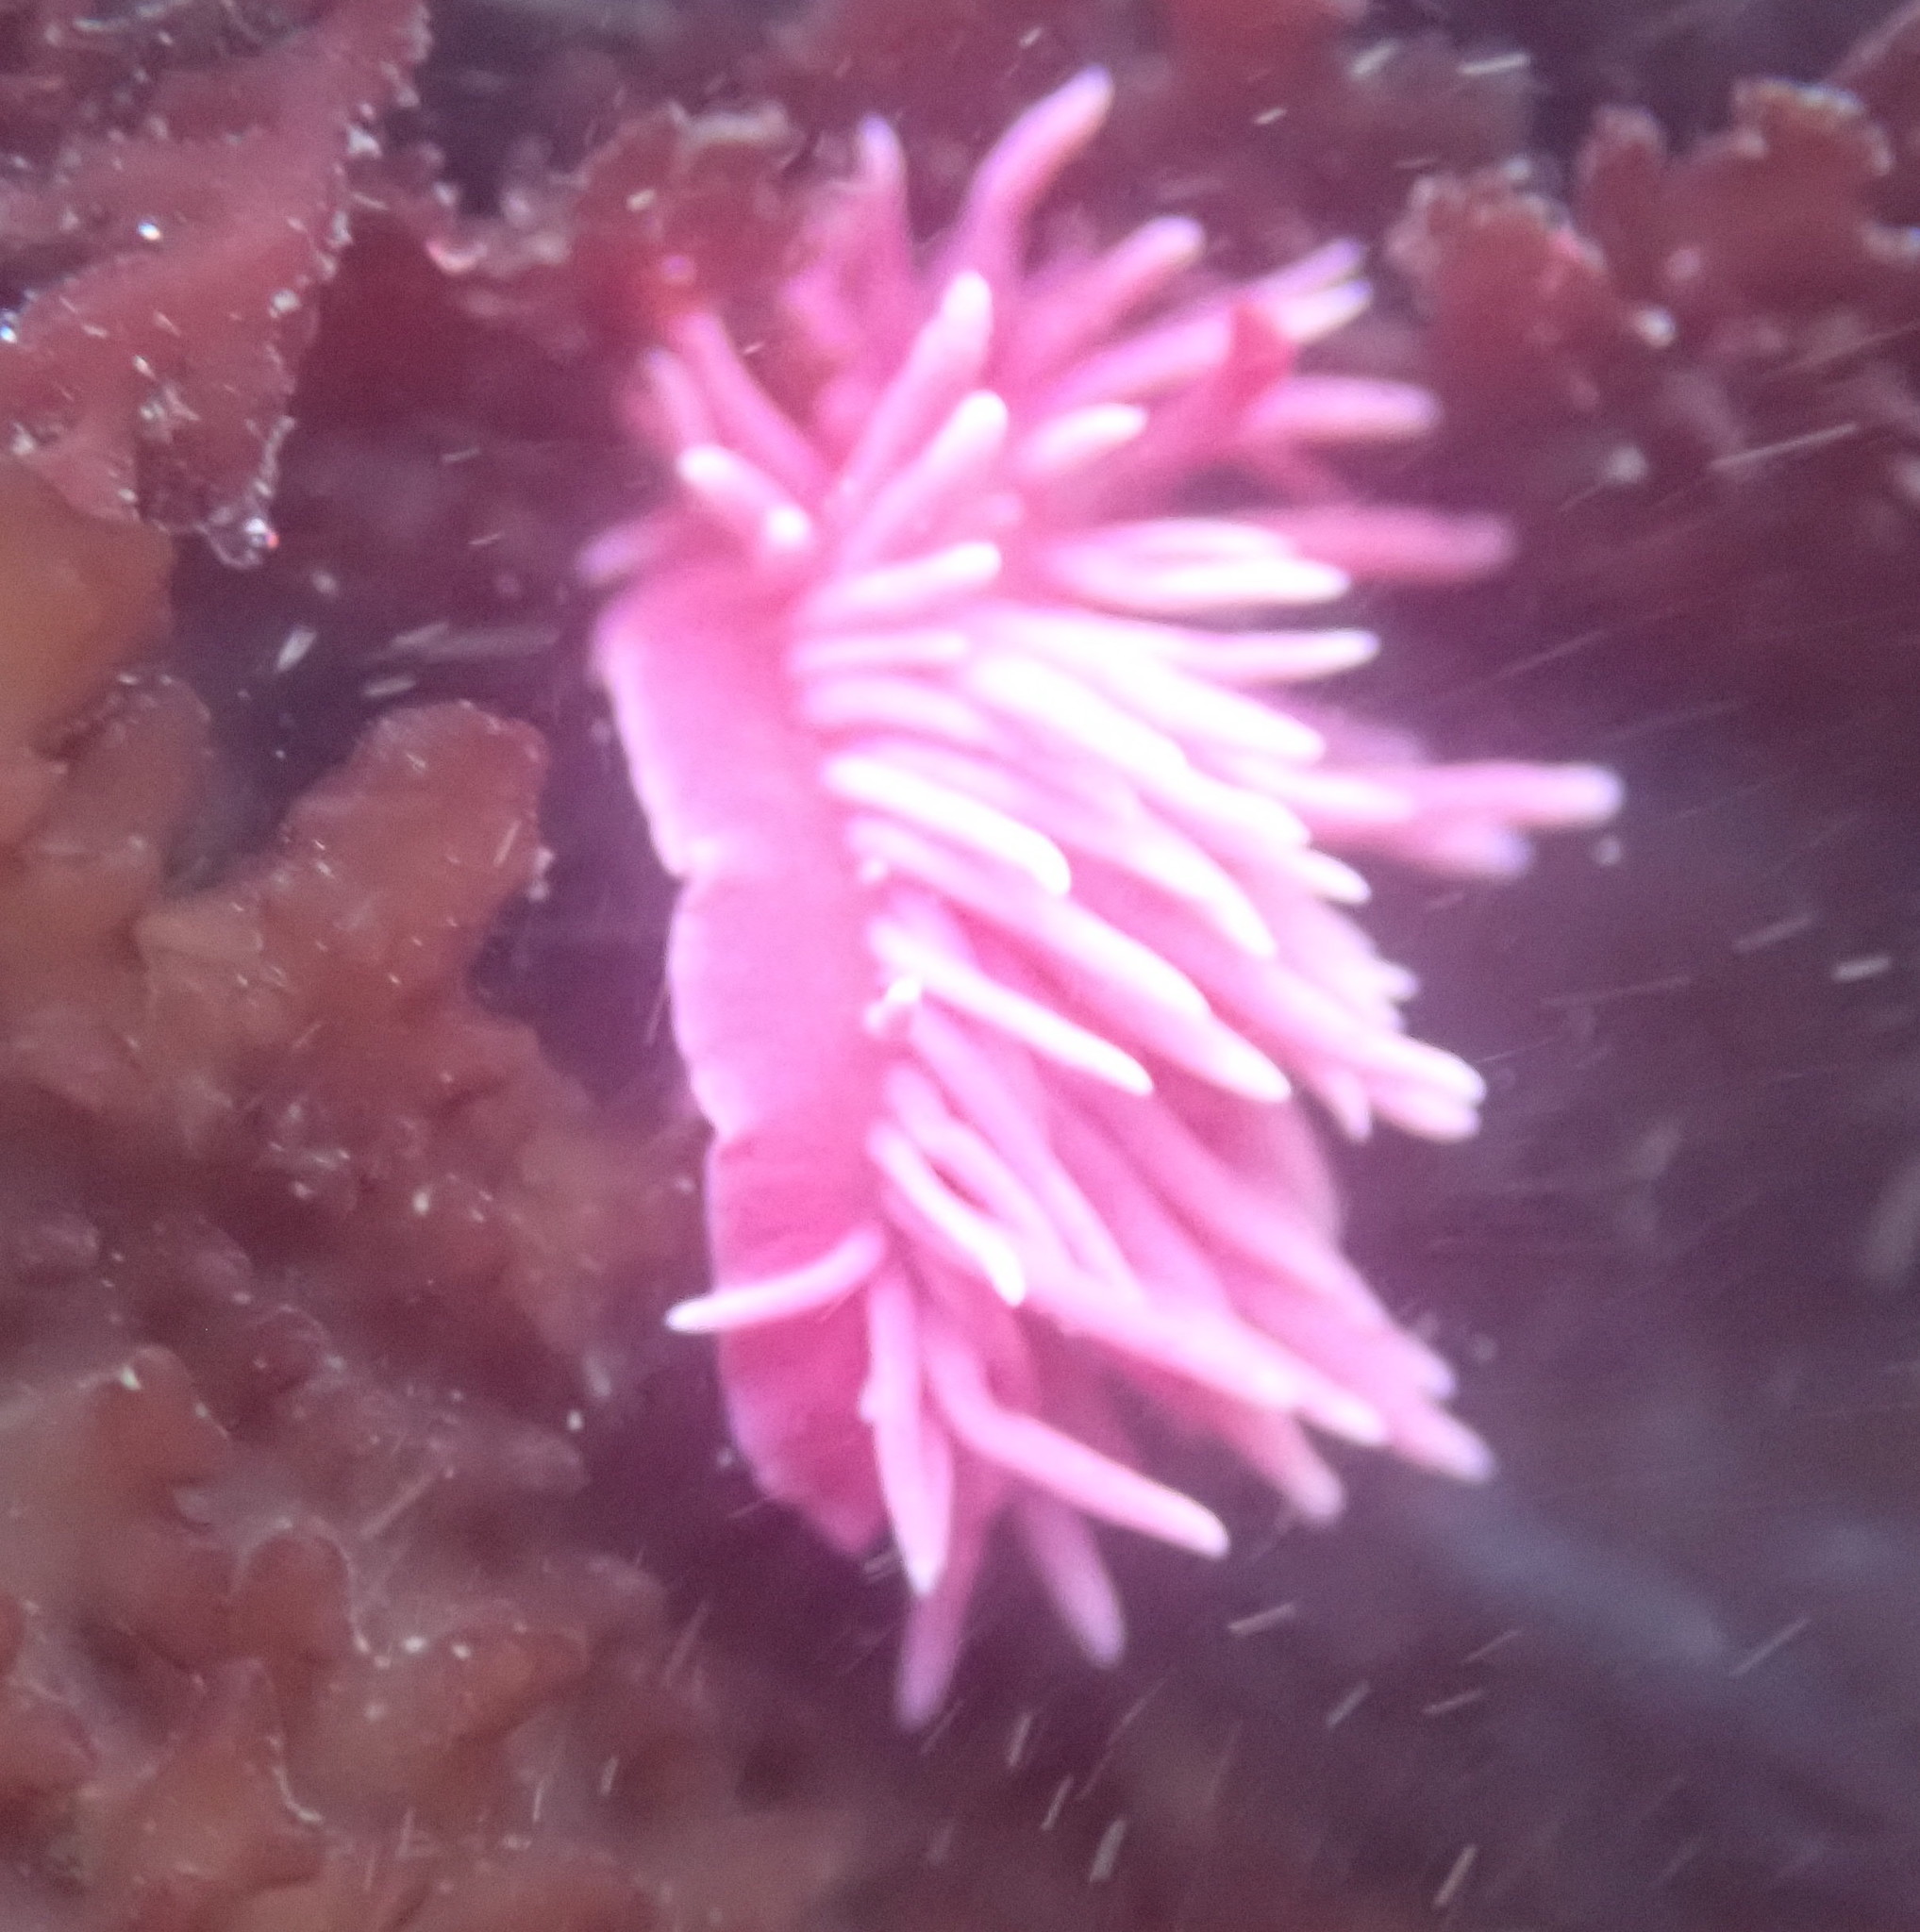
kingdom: Animalia
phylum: Mollusca
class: Gastropoda
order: Nudibranchia
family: Goniodorididae
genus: Okenia
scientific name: Okenia
